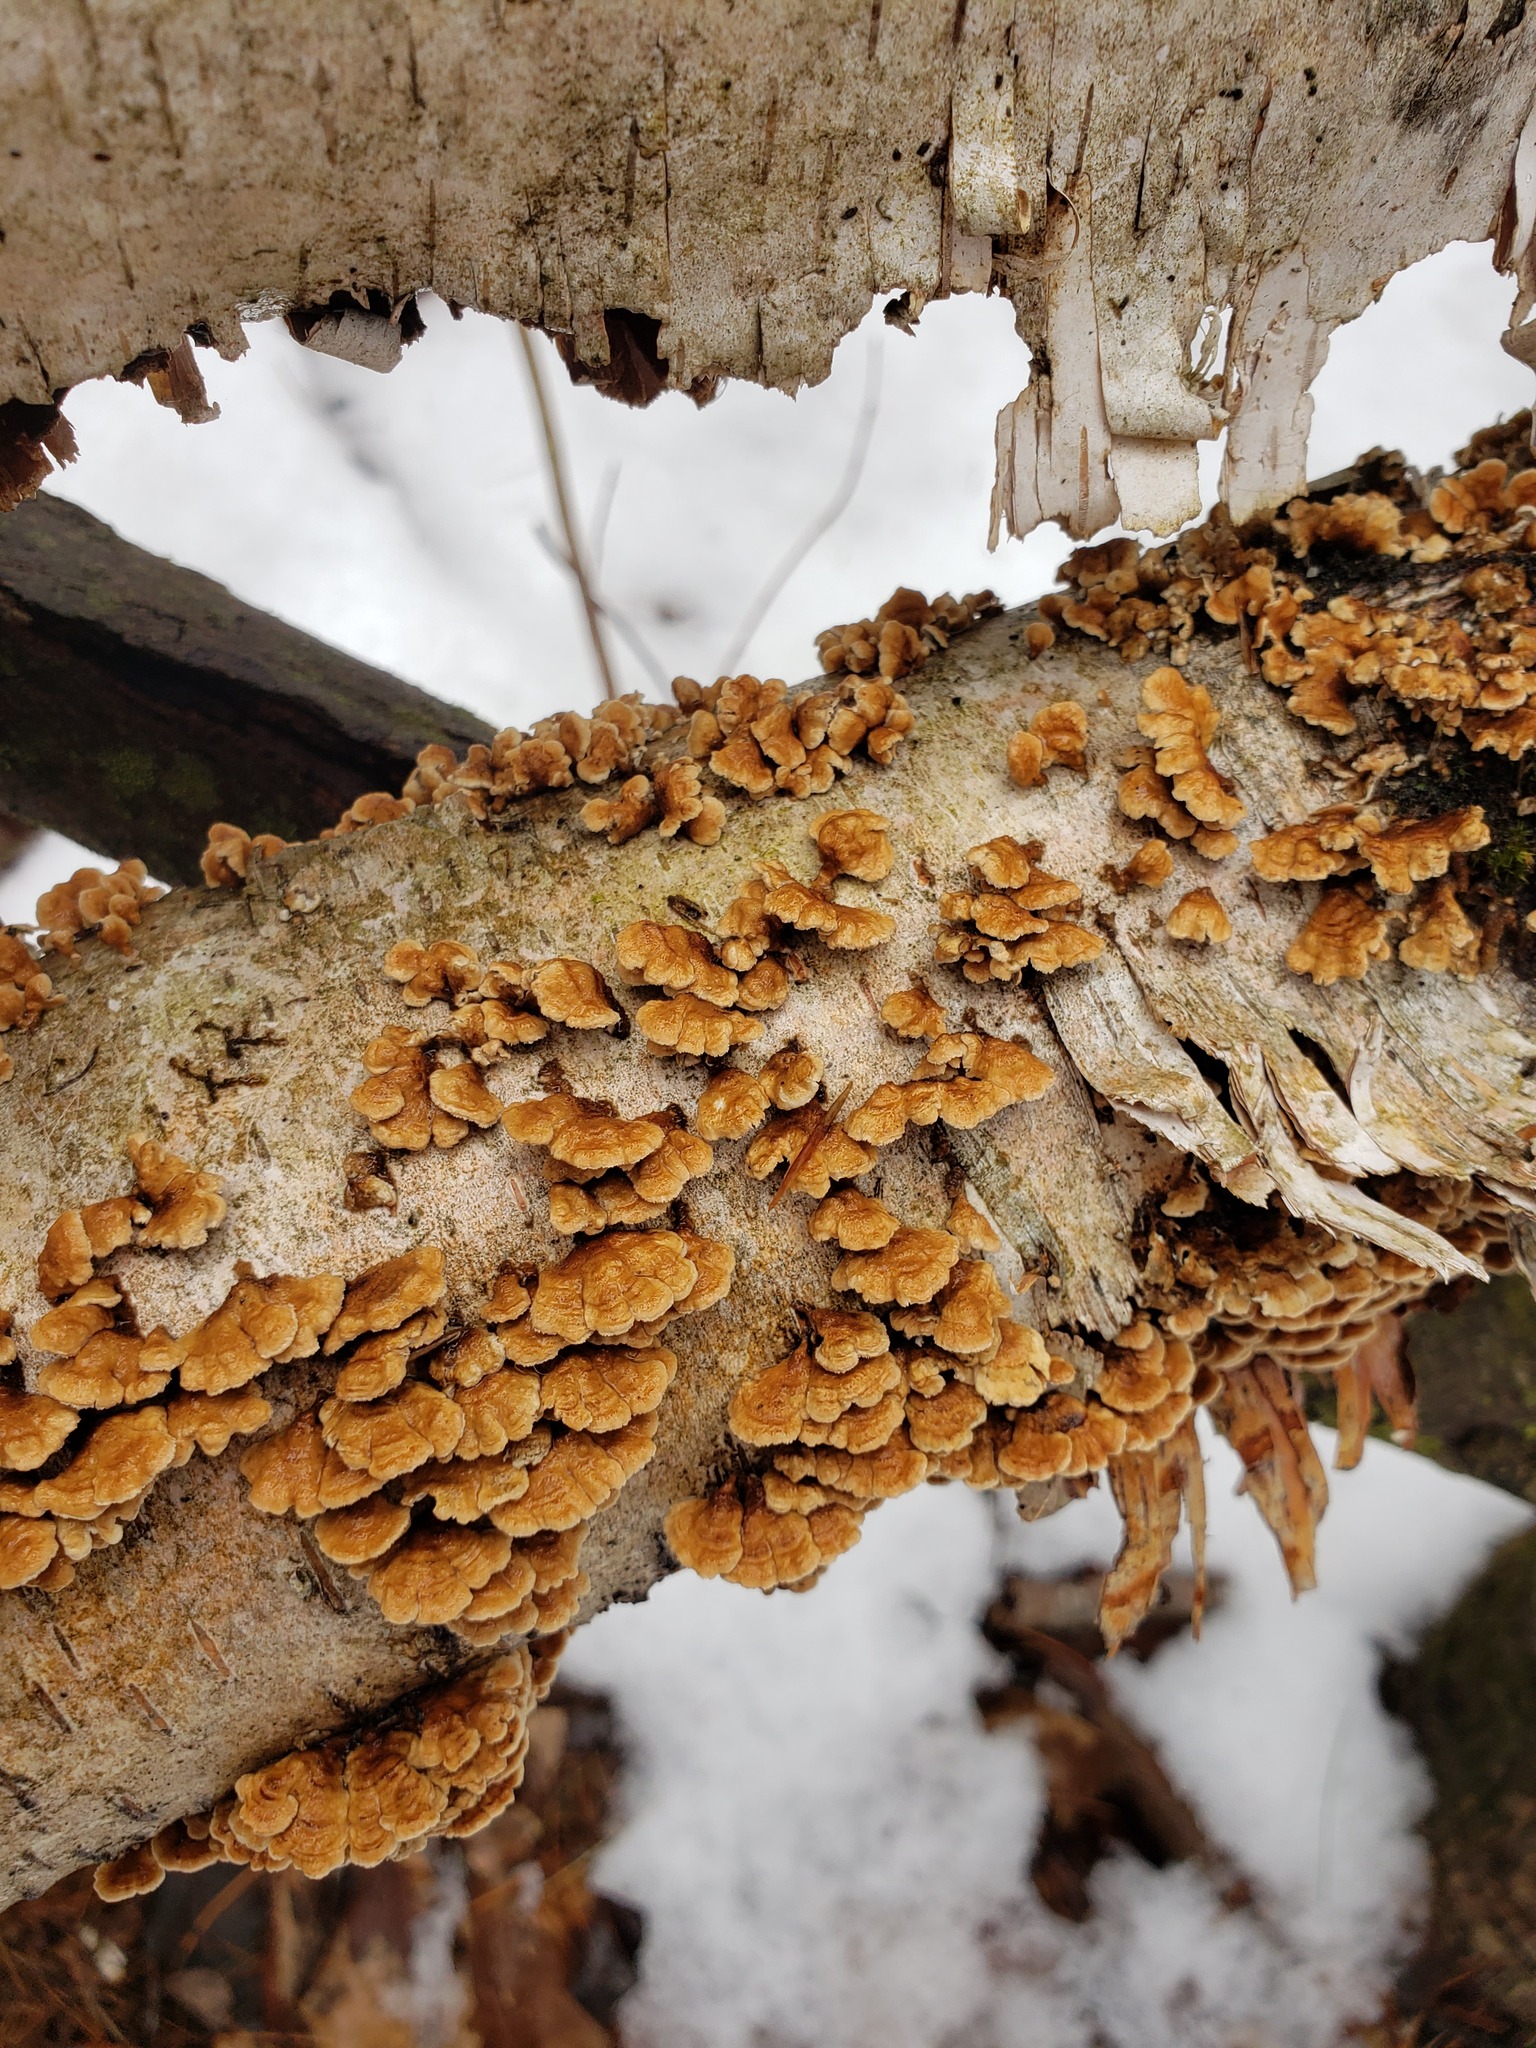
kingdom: Fungi
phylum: Basidiomycota
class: Agaricomycetes
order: Amylocorticiales
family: Amylocorticiaceae
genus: Plicaturopsis
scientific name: Plicaturopsis crispa
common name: Crimped gill
